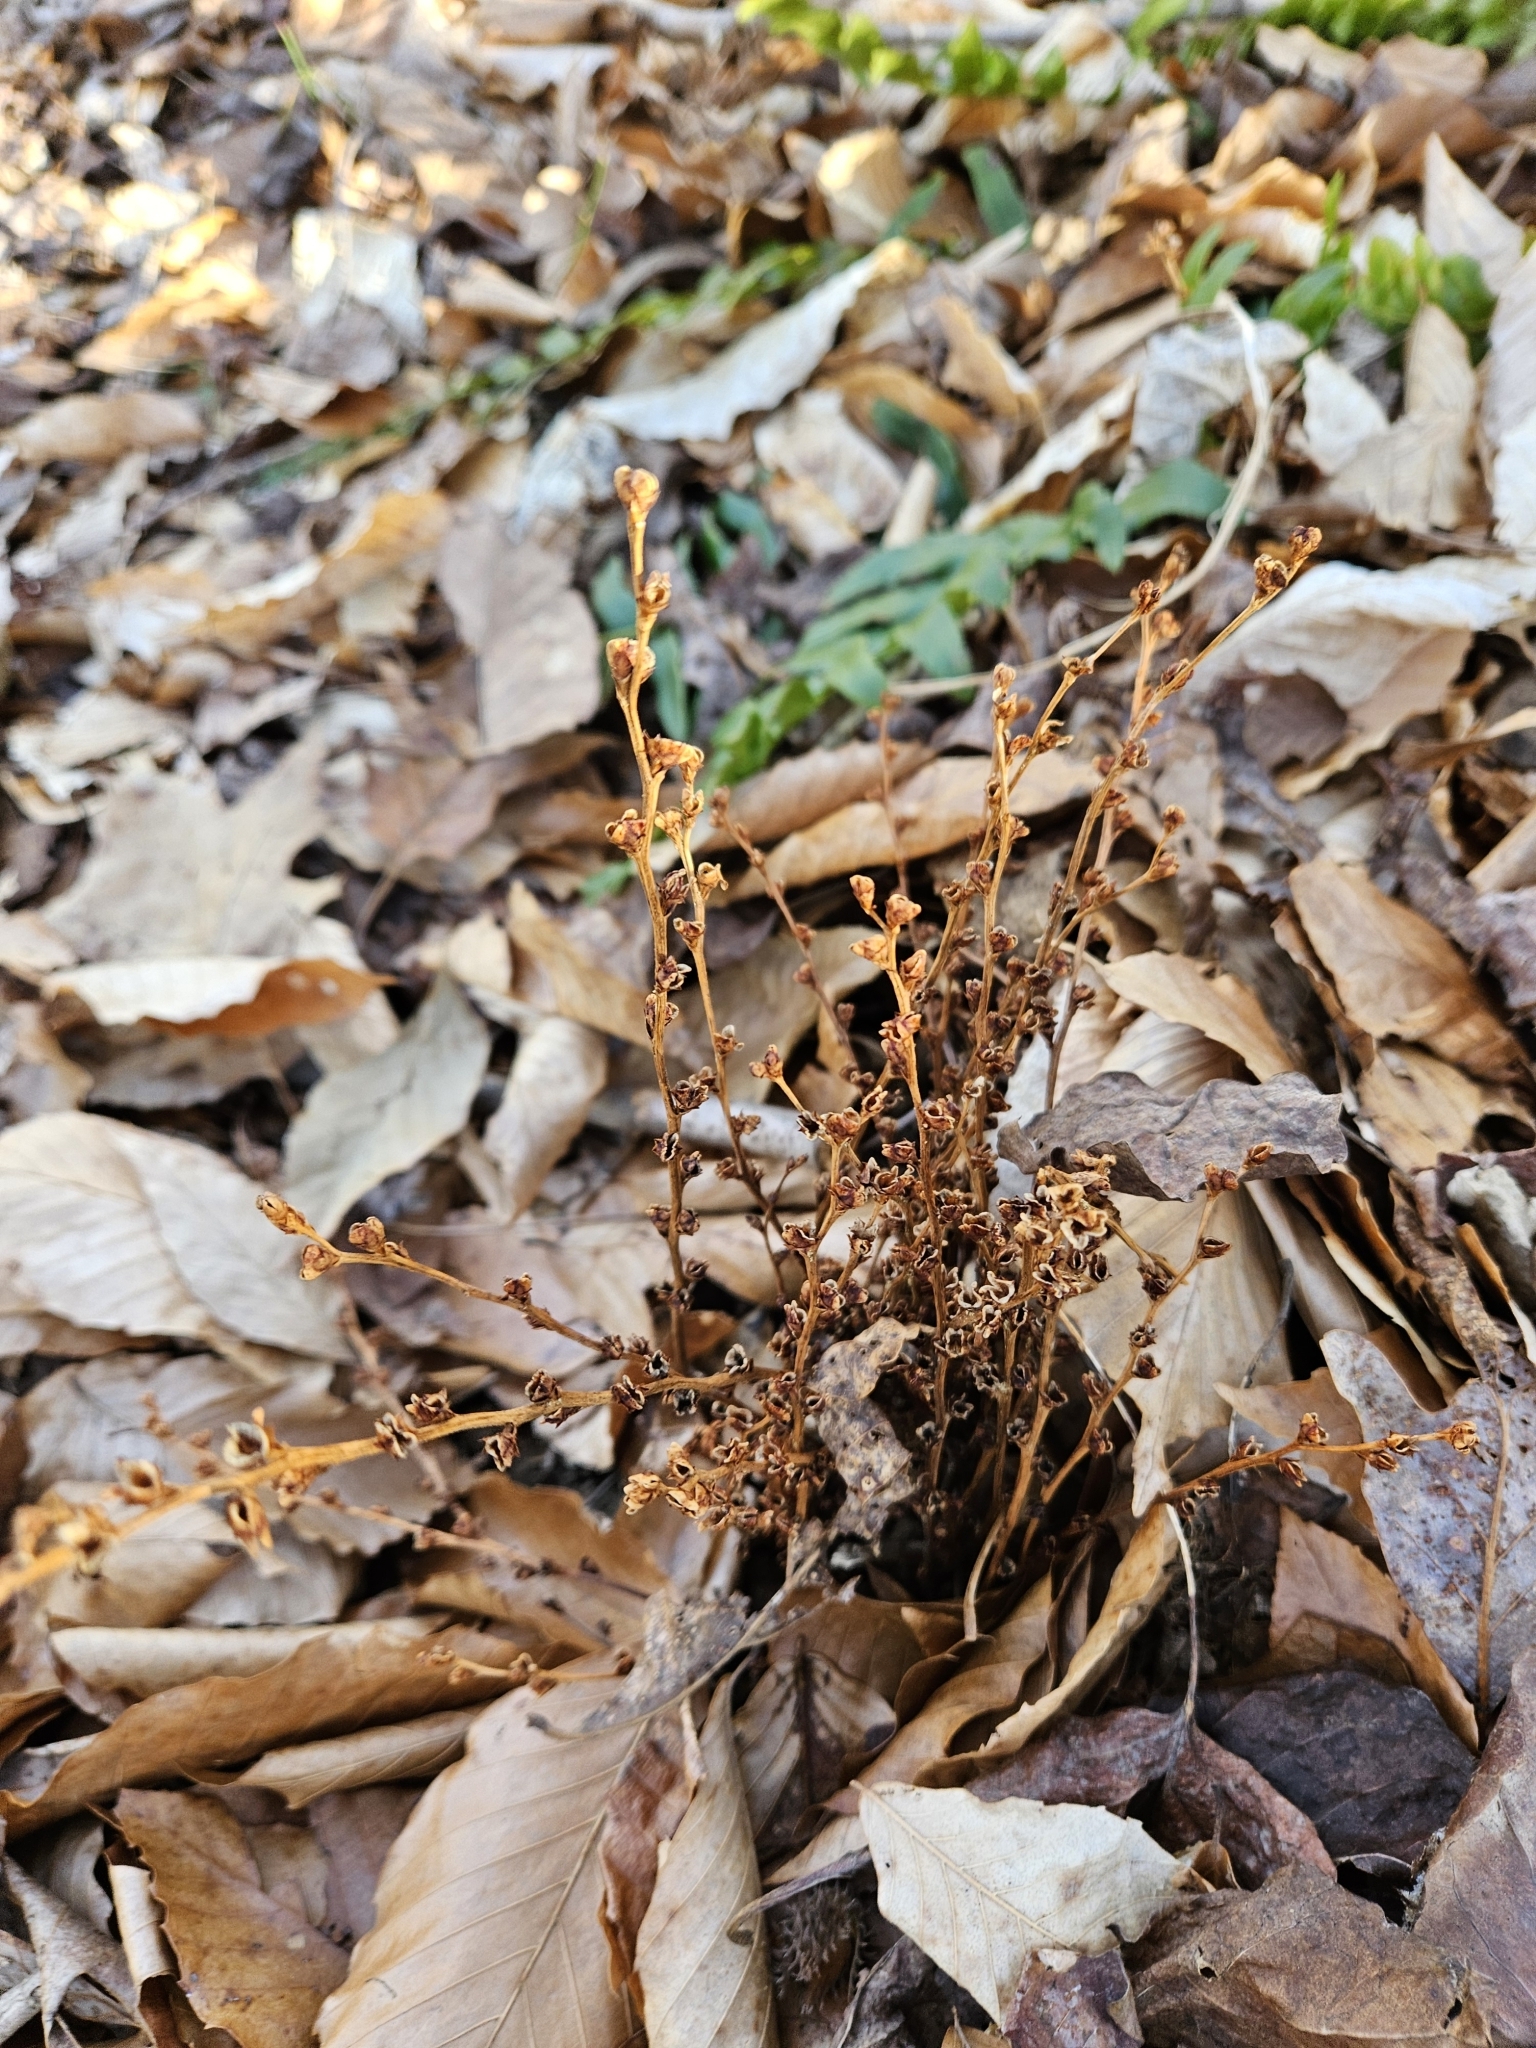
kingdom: Plantae
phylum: Tracheophyta
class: Magnoliopsida
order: Lamiales
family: Orobanchaceae
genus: Epifagus
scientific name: Epifagus virginiana
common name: Beechdrops
